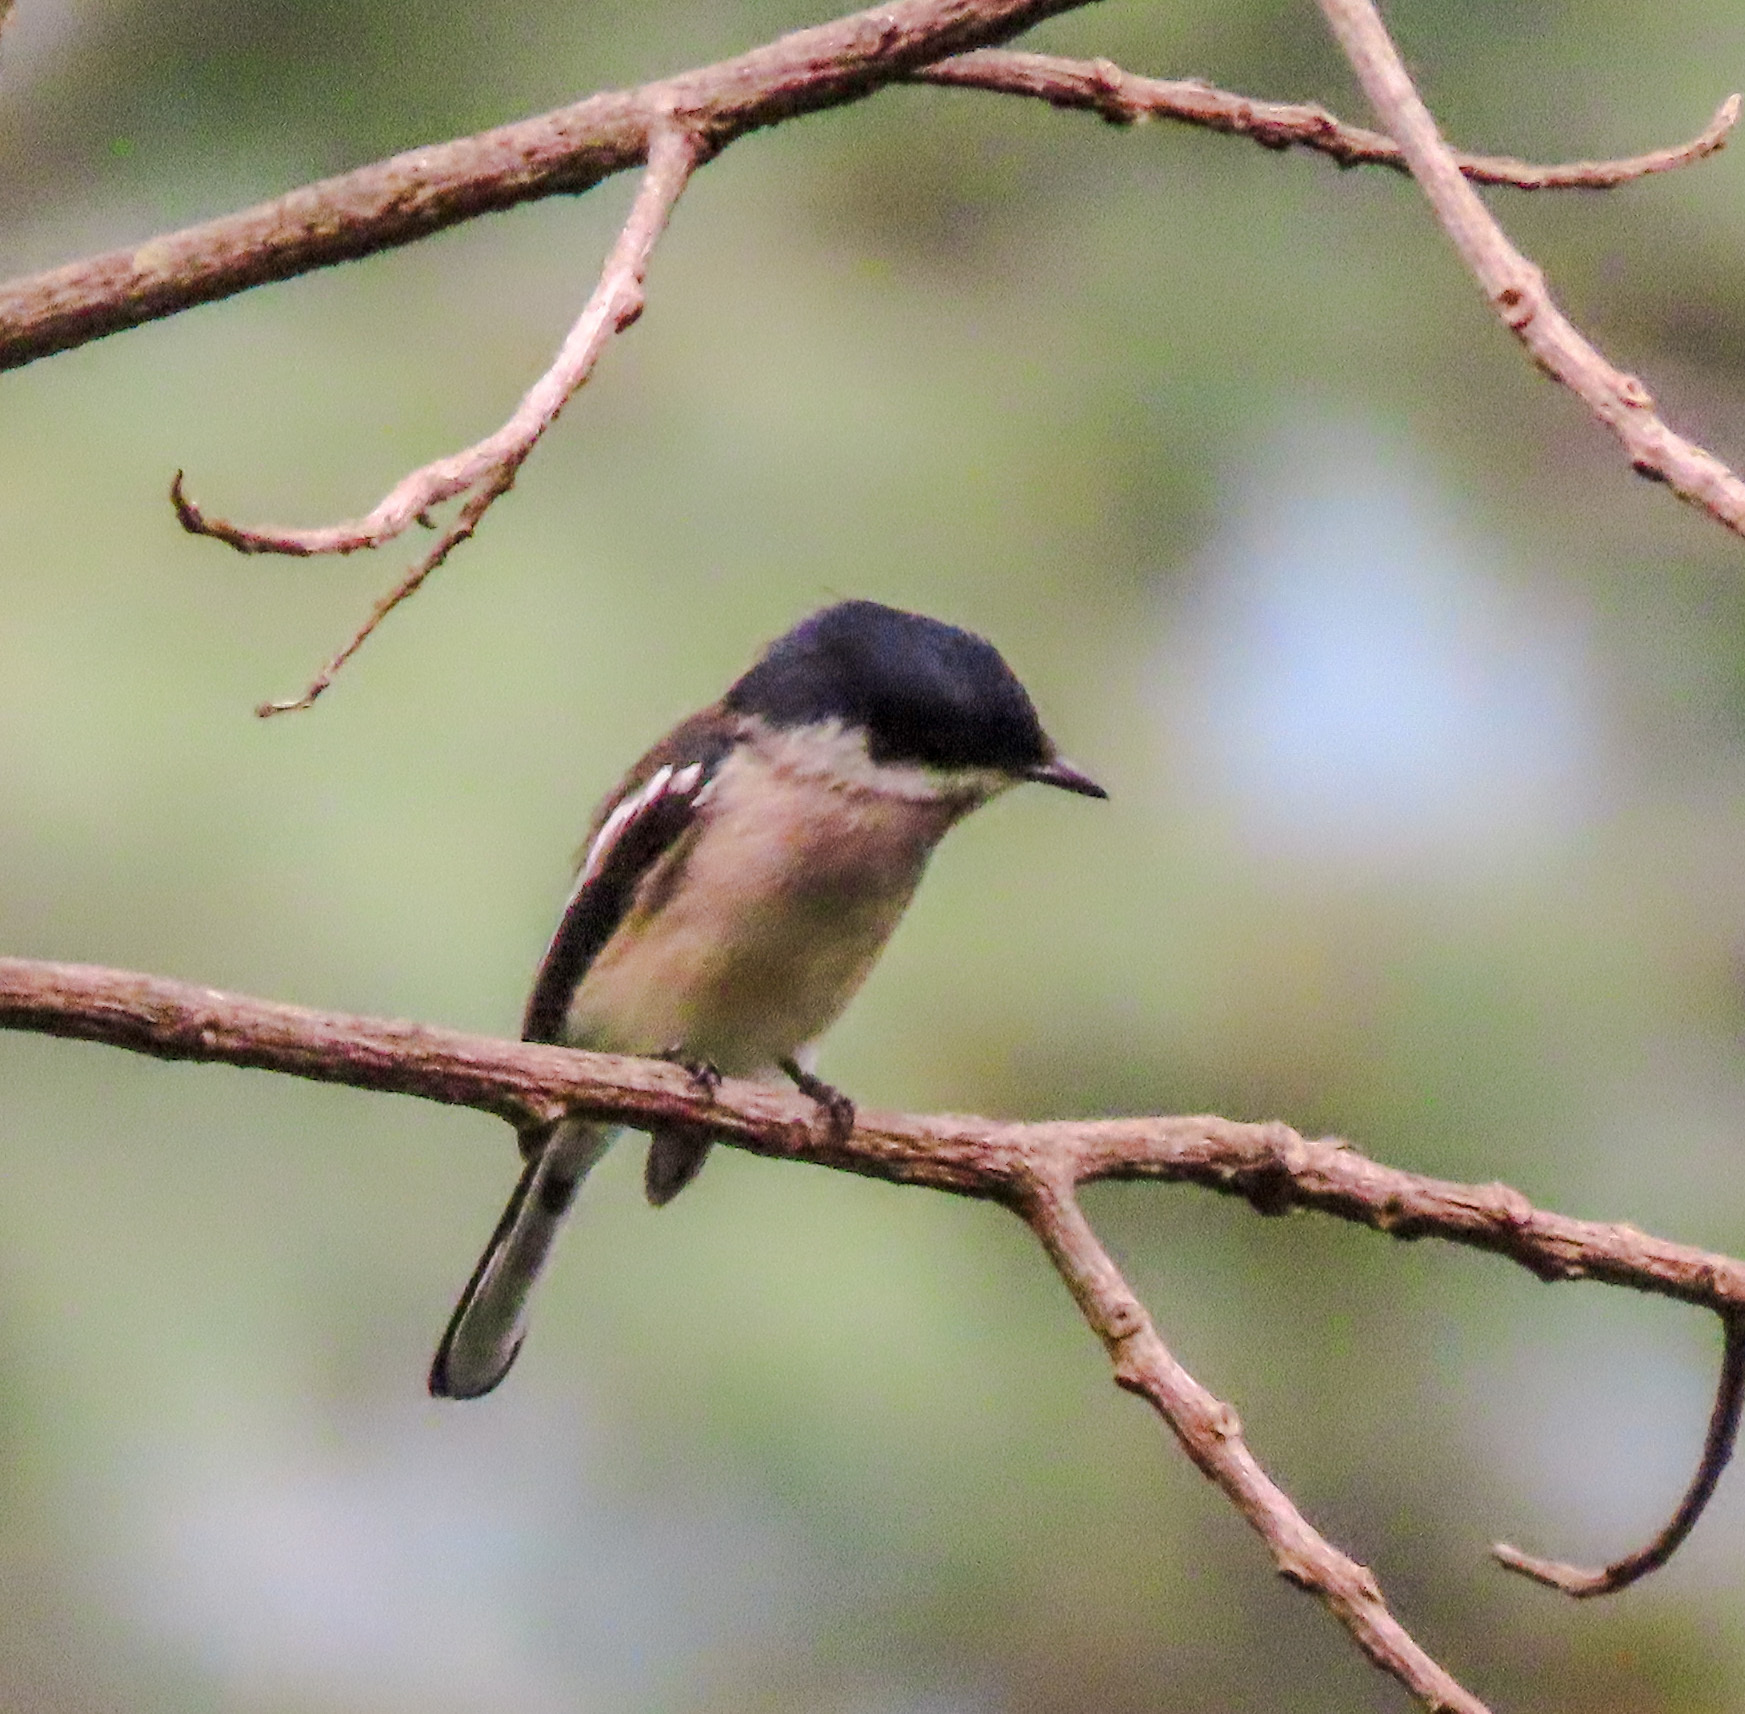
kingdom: Animalia
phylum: Chordata
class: Aves
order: Passeriformes
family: Tephrodornithidae
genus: Hemipus
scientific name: Hemipus picatus
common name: Bar-winged flycatcher-shrike
